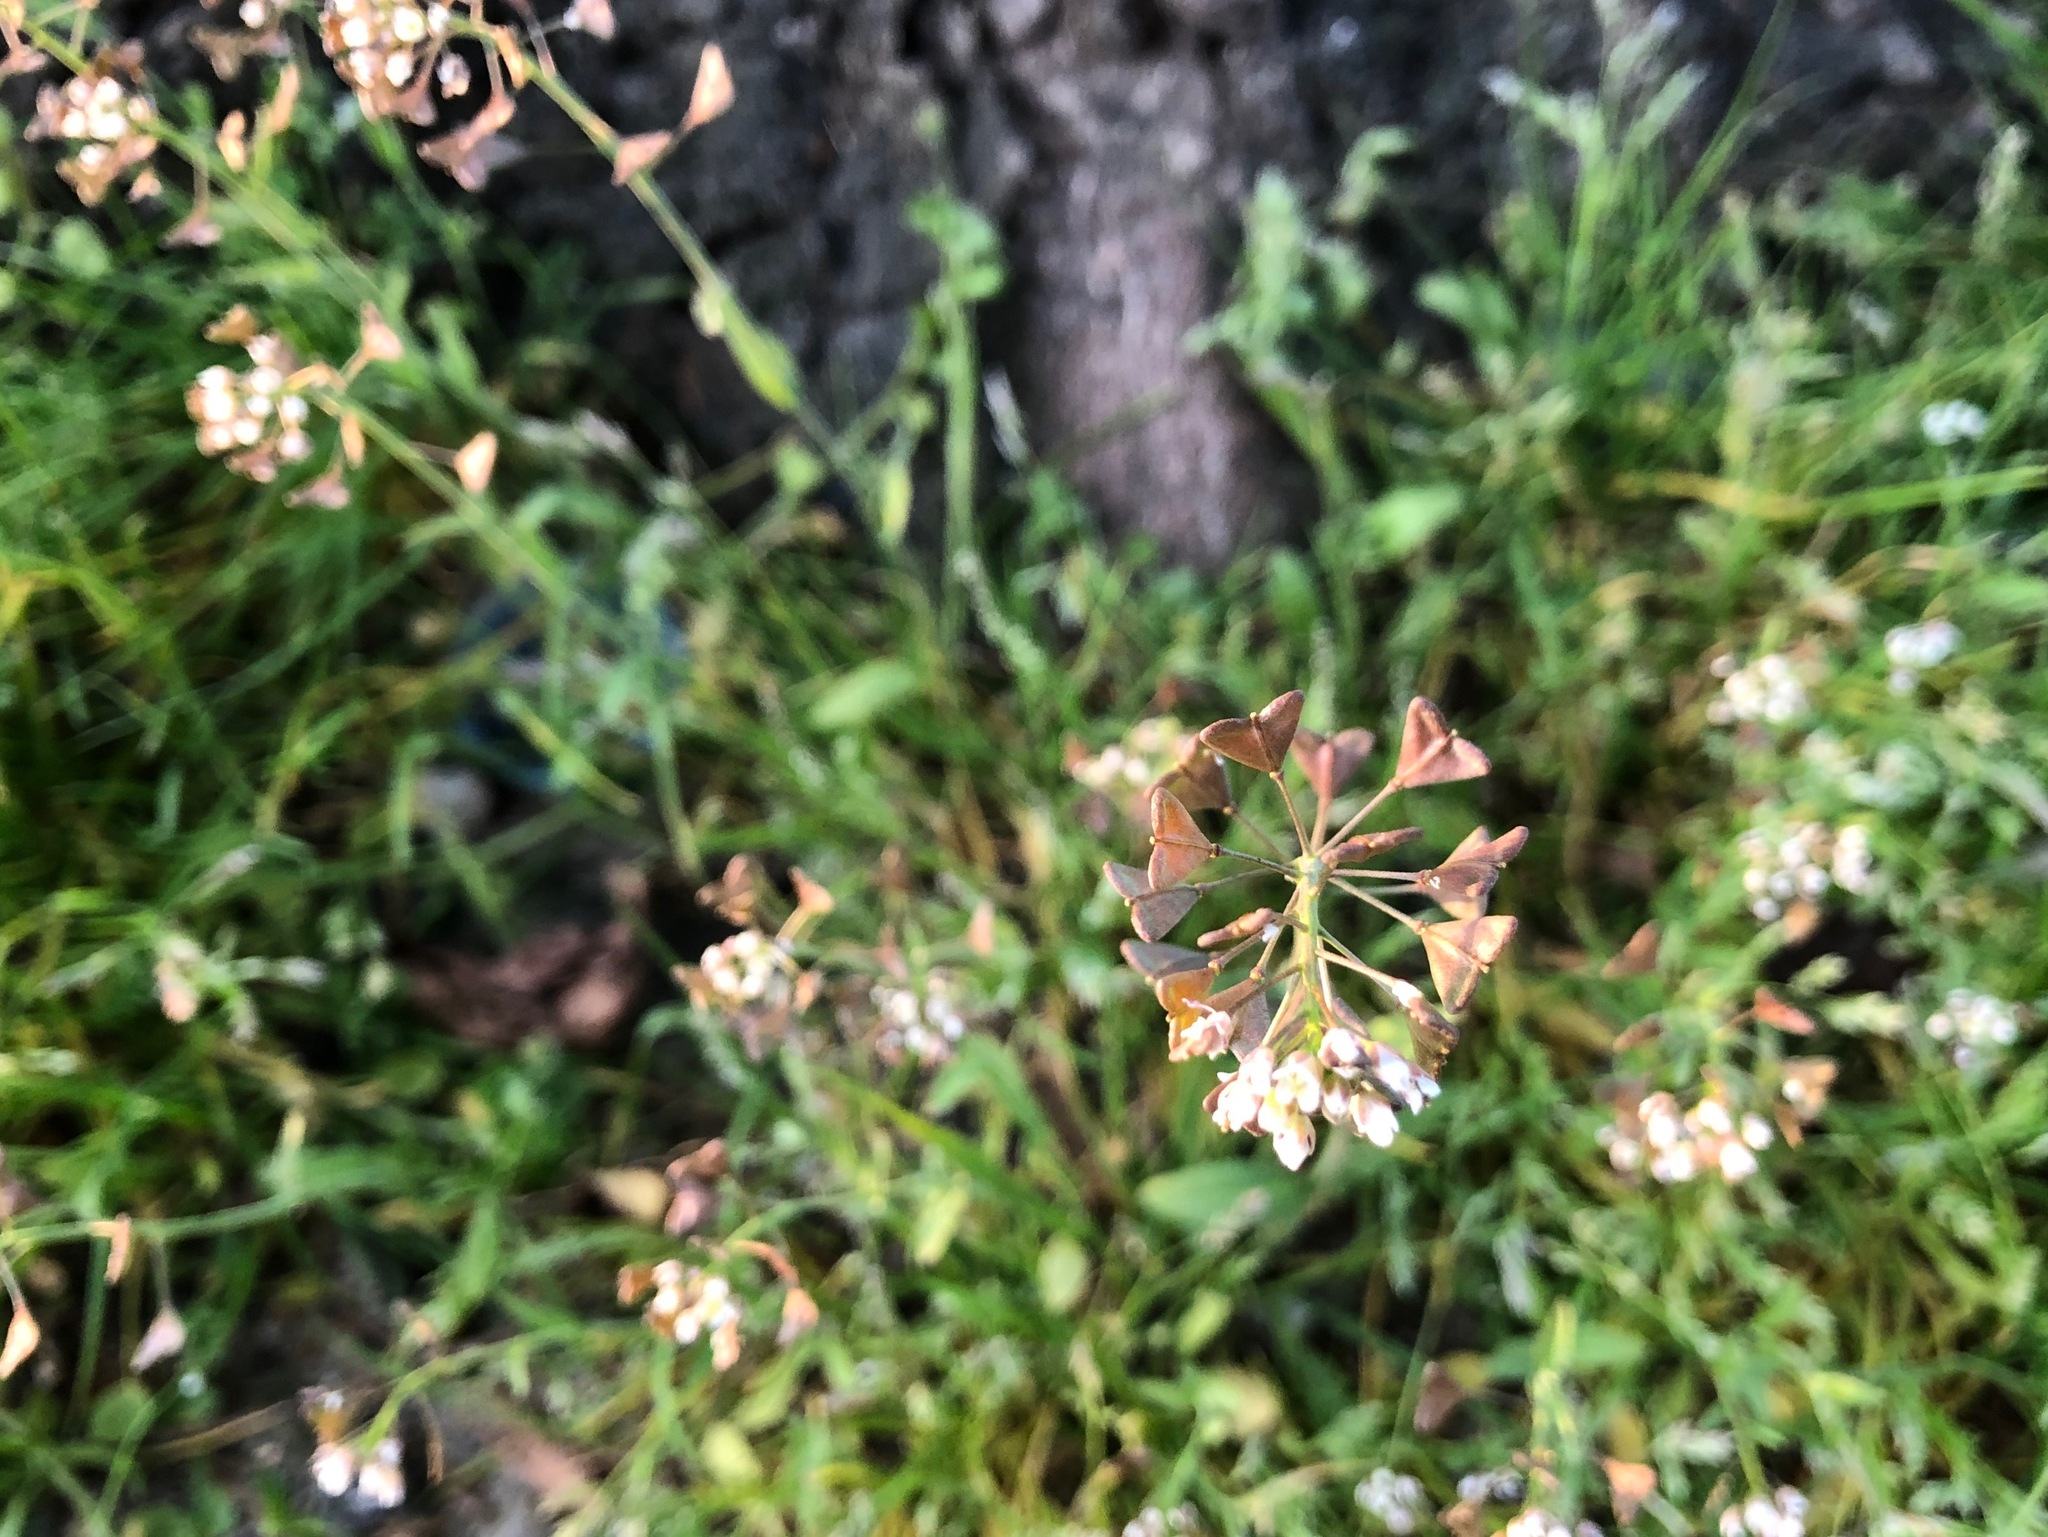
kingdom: Plantae
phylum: Tracheophyta
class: Magnoliopsida
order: Brassicales
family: Brassicaceae
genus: Capsella
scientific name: Capsella bursa-pastoris
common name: Shepherd's purse
